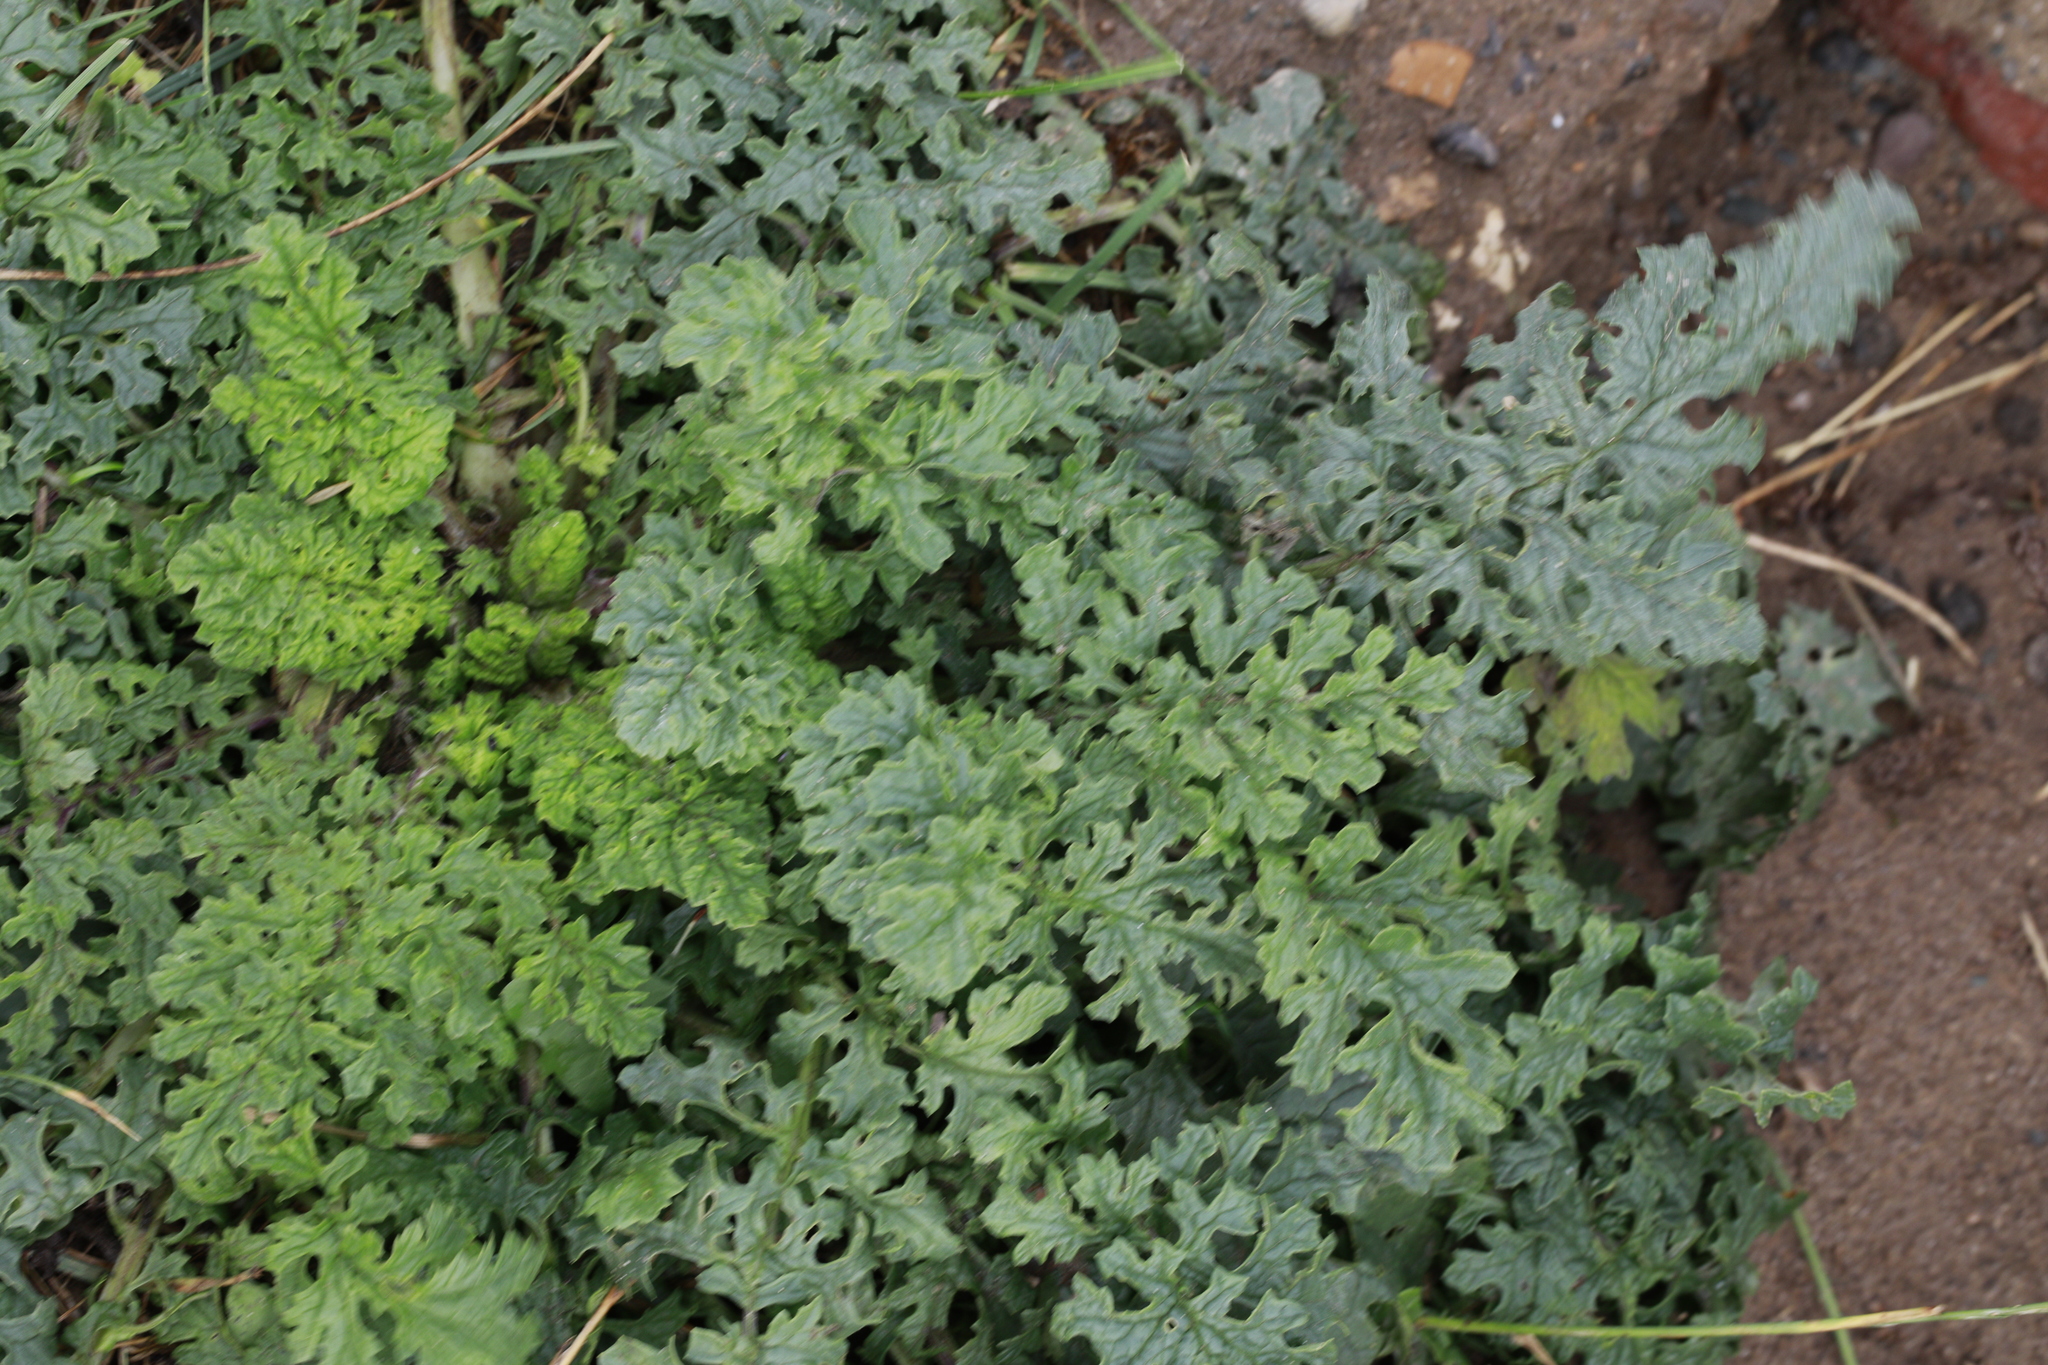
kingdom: Plantae
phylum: Tracheophyta
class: Magnoliopsida
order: Asterales
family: Asteraceae
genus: Jacobaea
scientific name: Jacobaea vulgaris
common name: Stinking willie
